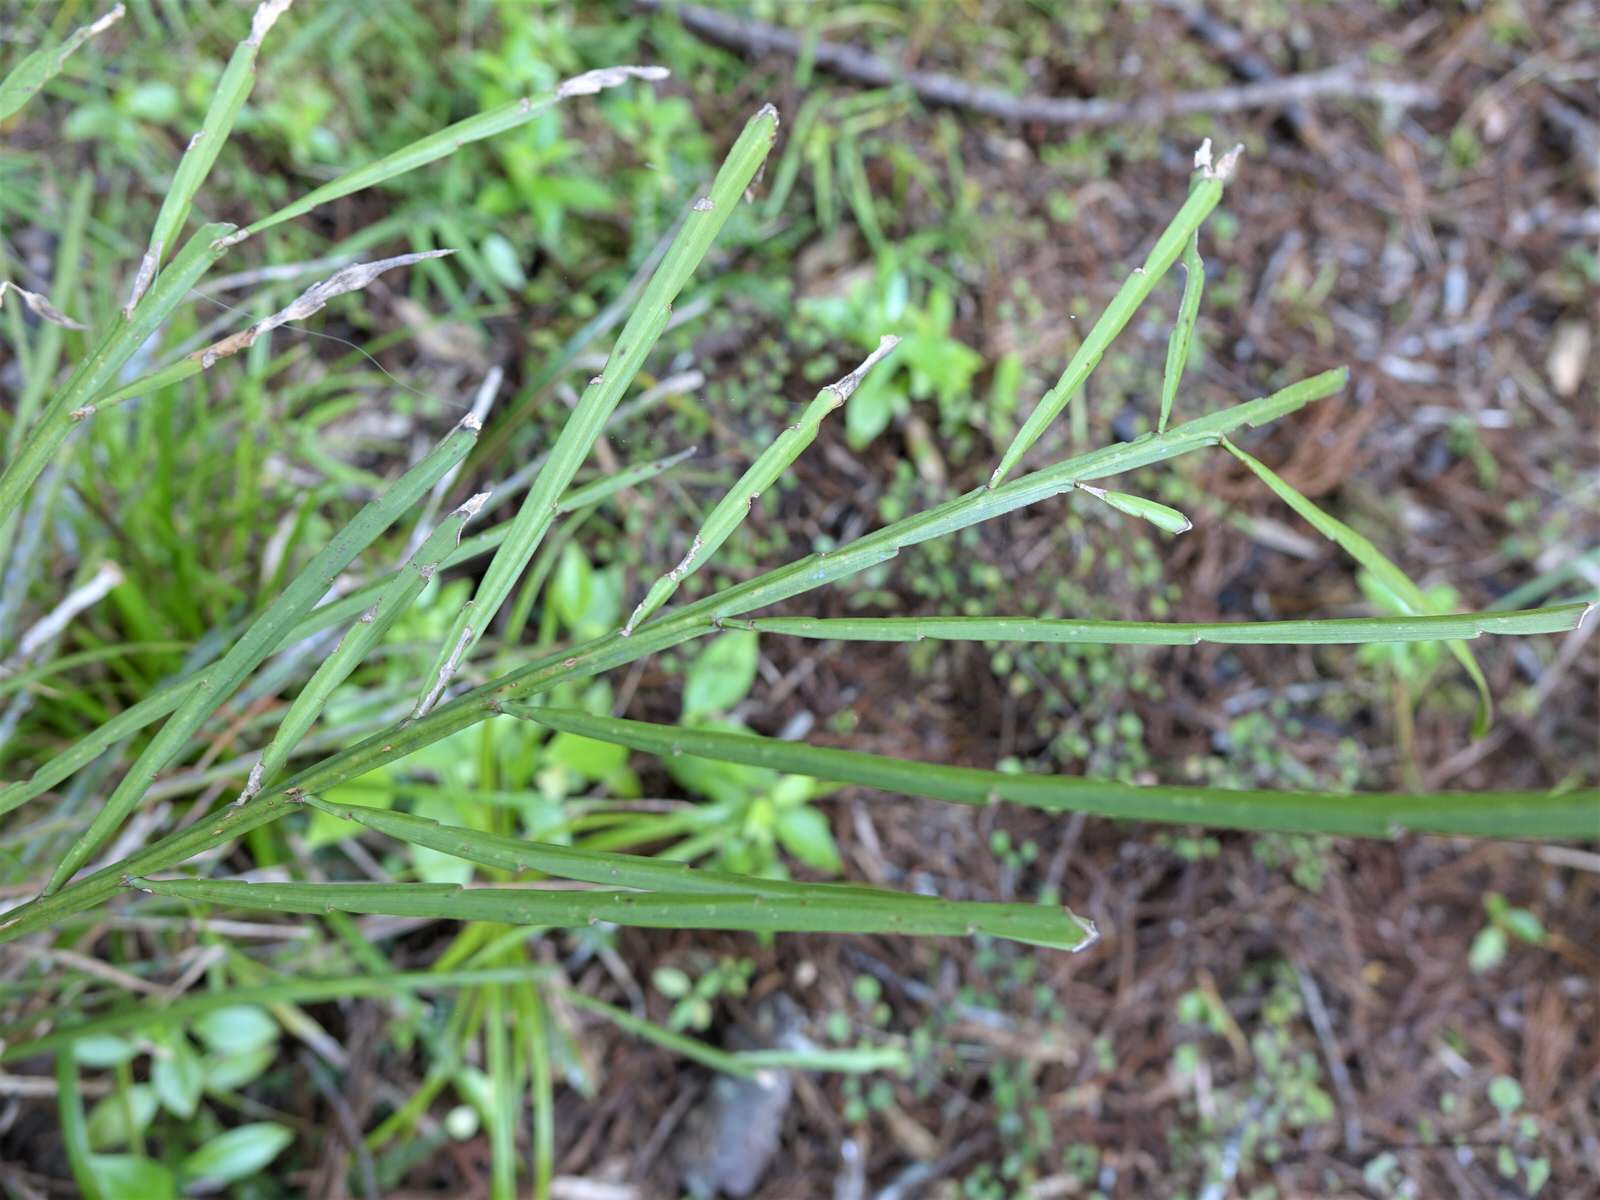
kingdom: Plantae
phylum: Tracheophyta
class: Magnoliopsida
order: Fabales
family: Fabaceae
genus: Carmichaelia
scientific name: Carmichaelia australis
